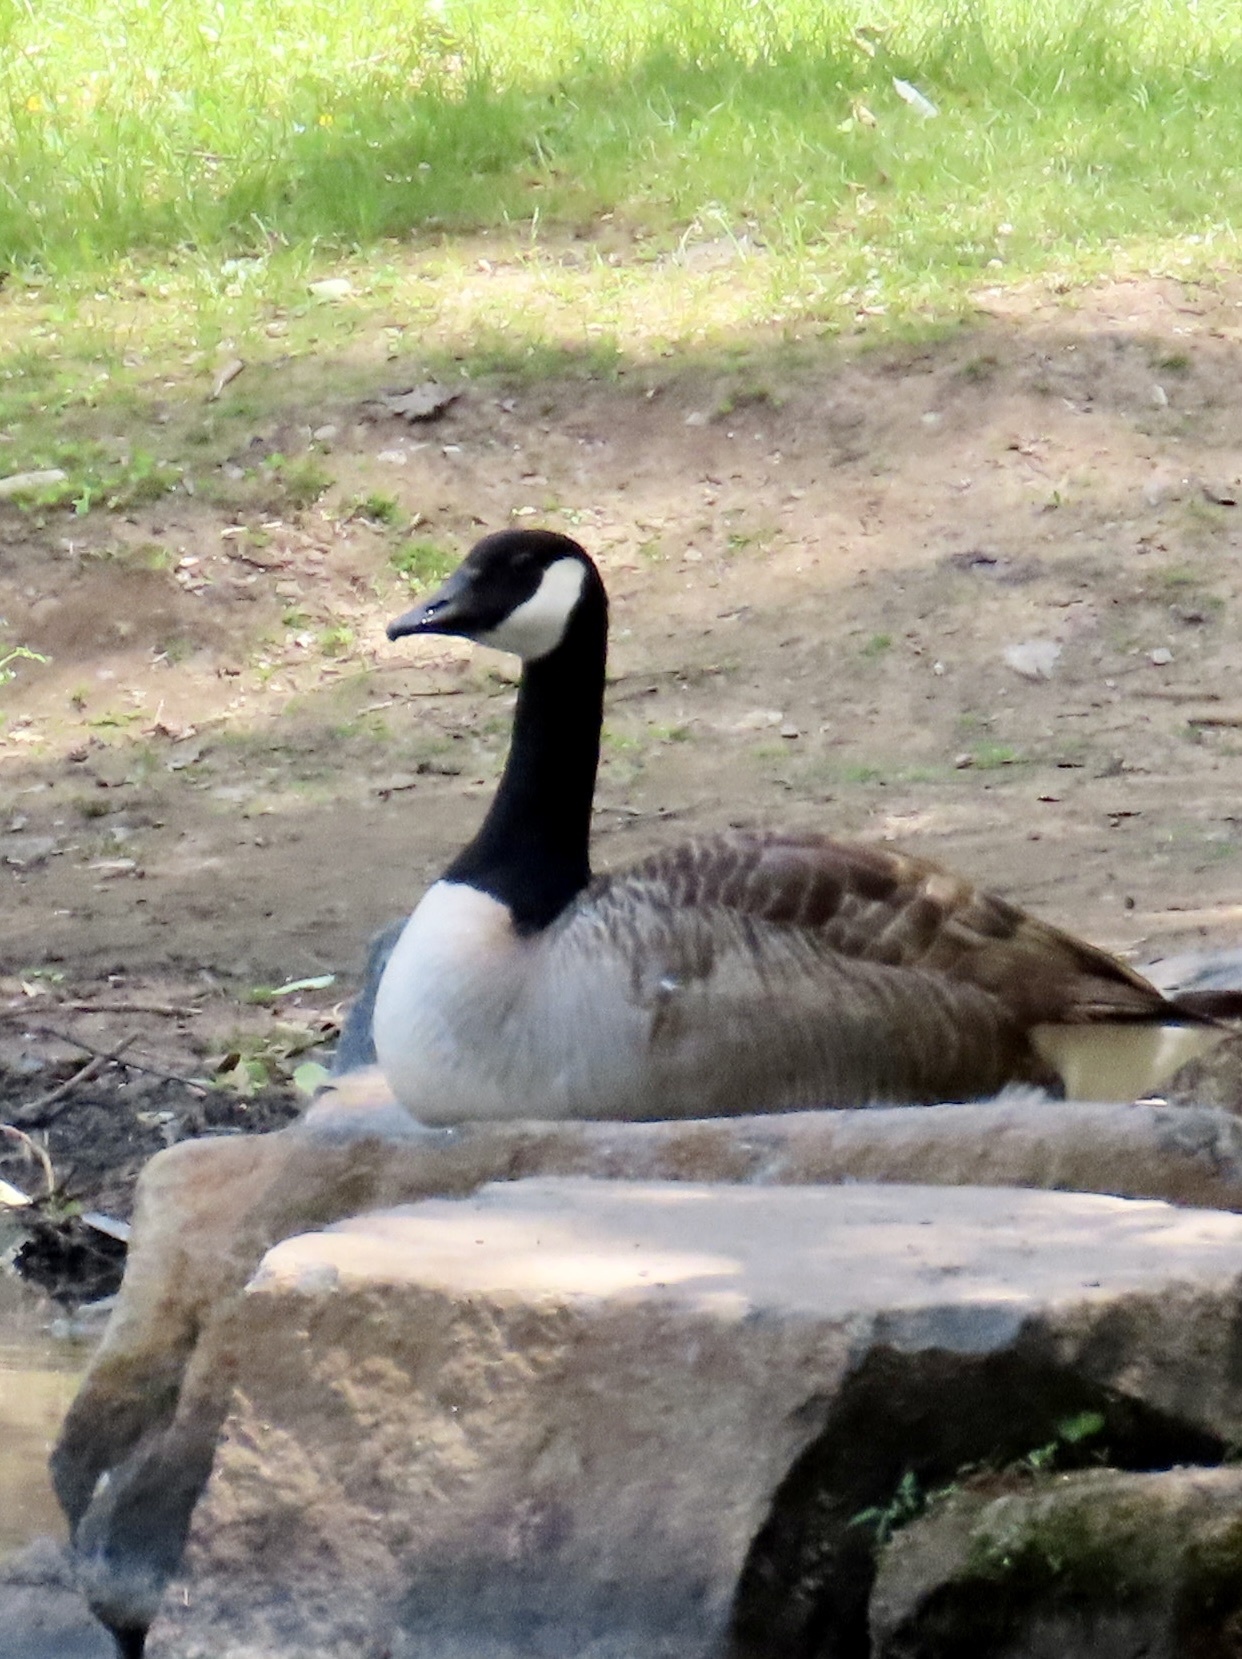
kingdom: Animalia
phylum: Chordata
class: Aves
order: Anseriformes
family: Anatidae
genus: Branta
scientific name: Branta canadensis
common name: Canada goose
